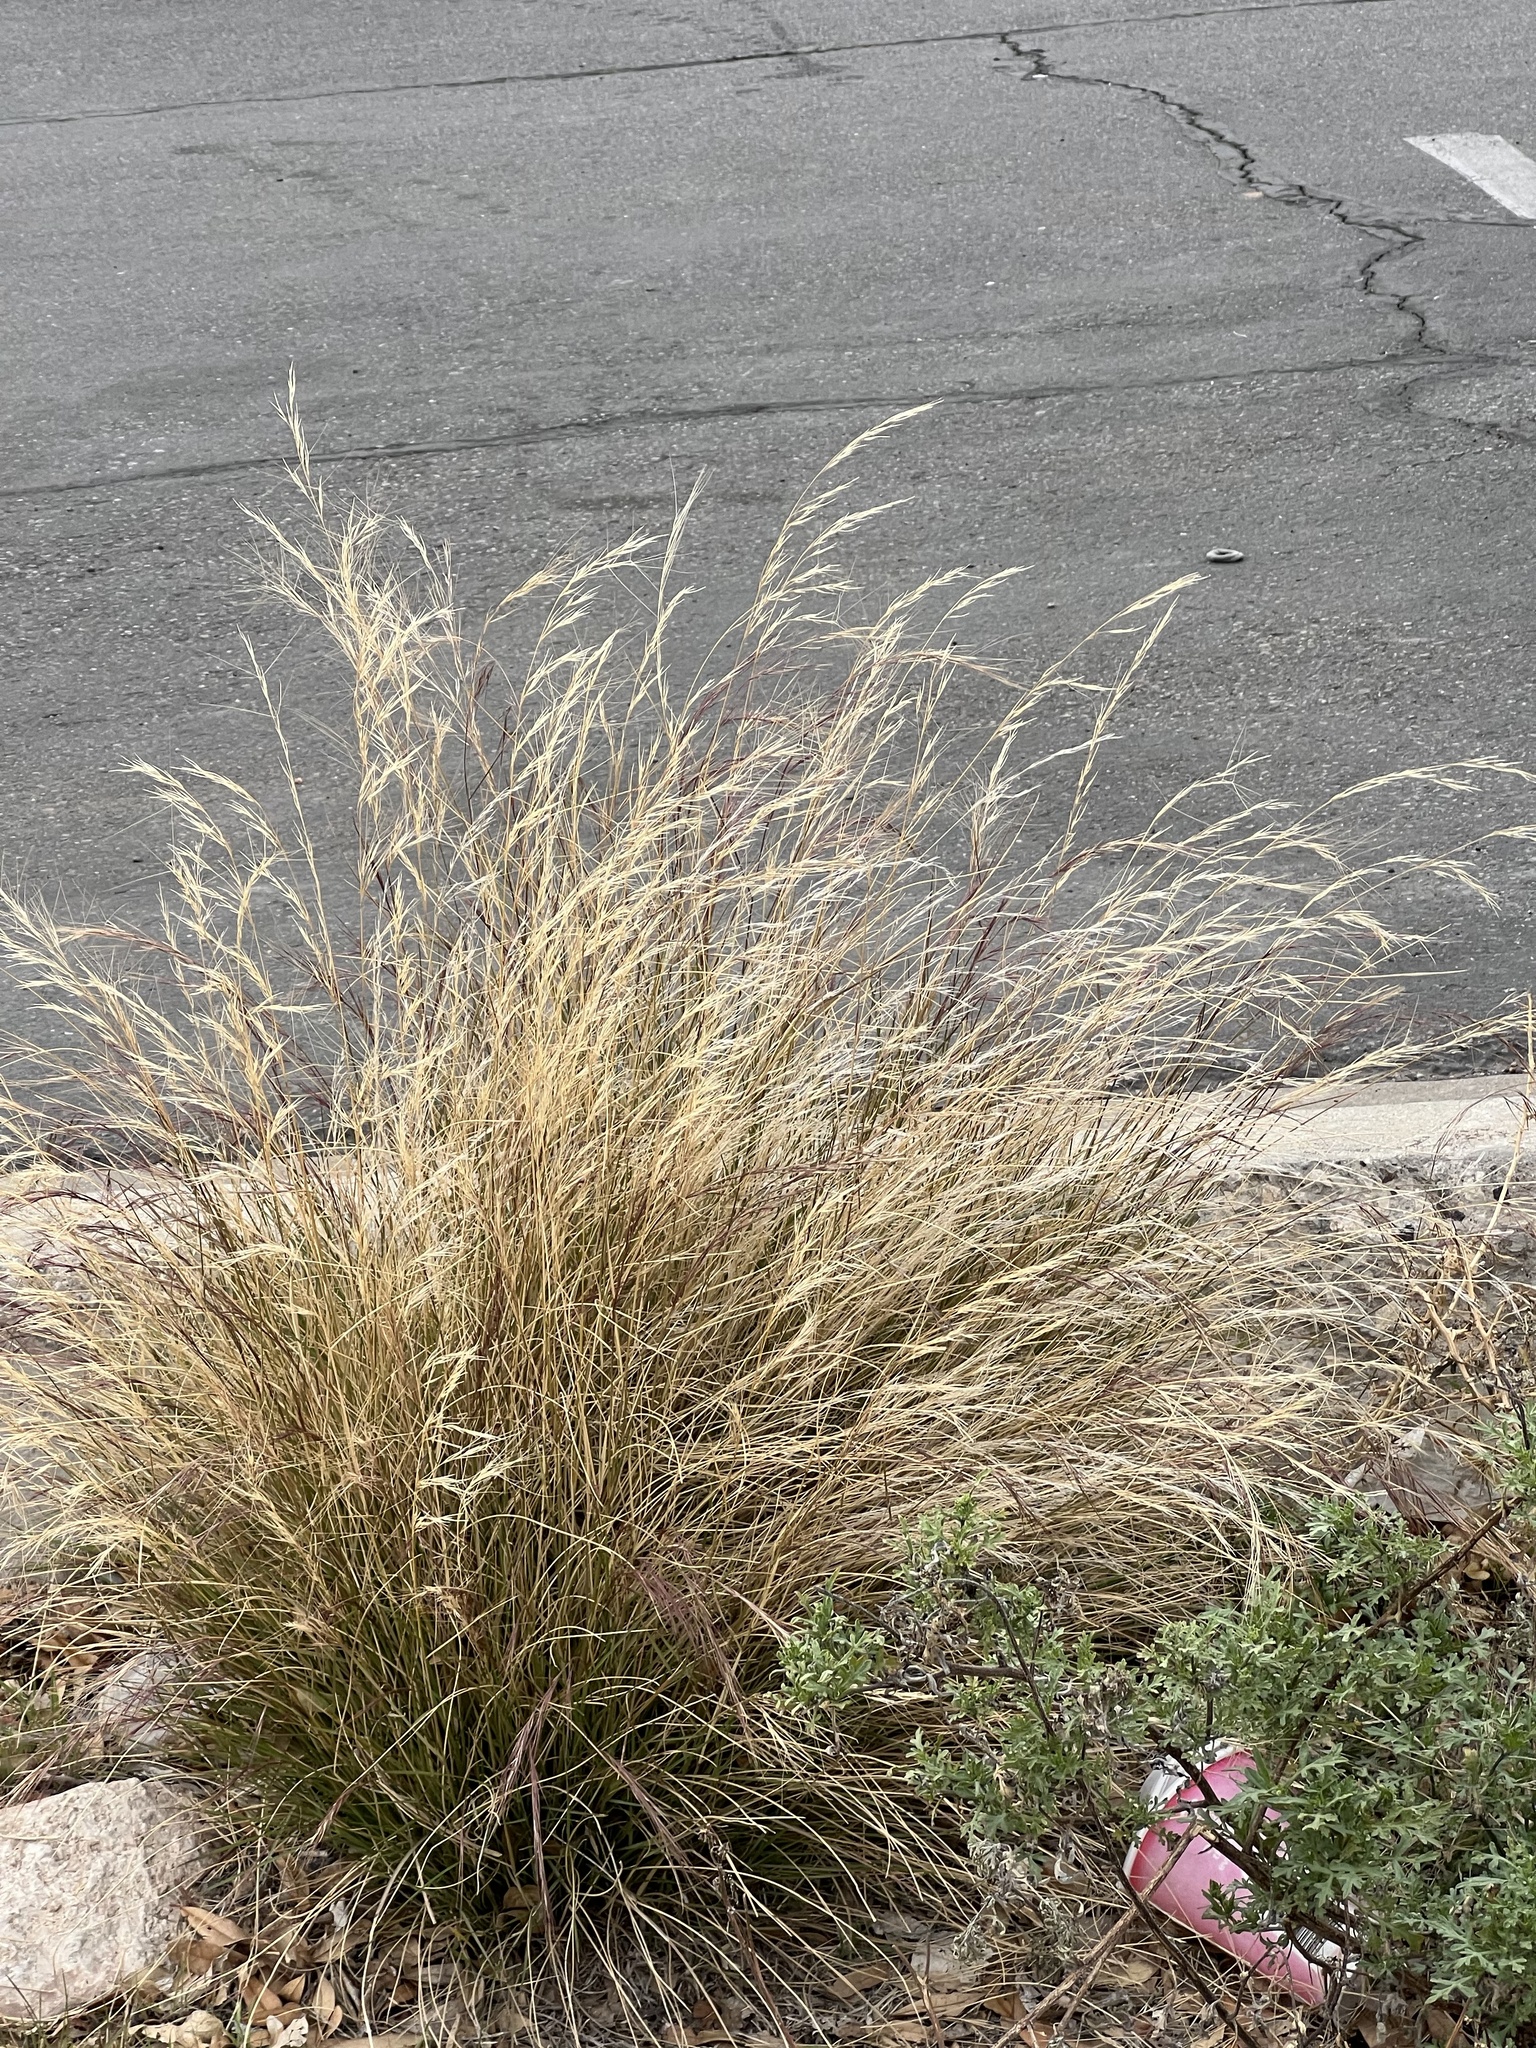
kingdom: Plantae
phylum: Tracheophyta
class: Liliopsida
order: Poales
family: Poaceae
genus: Aristida
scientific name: Aristida purpurea
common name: Purple threeawn
